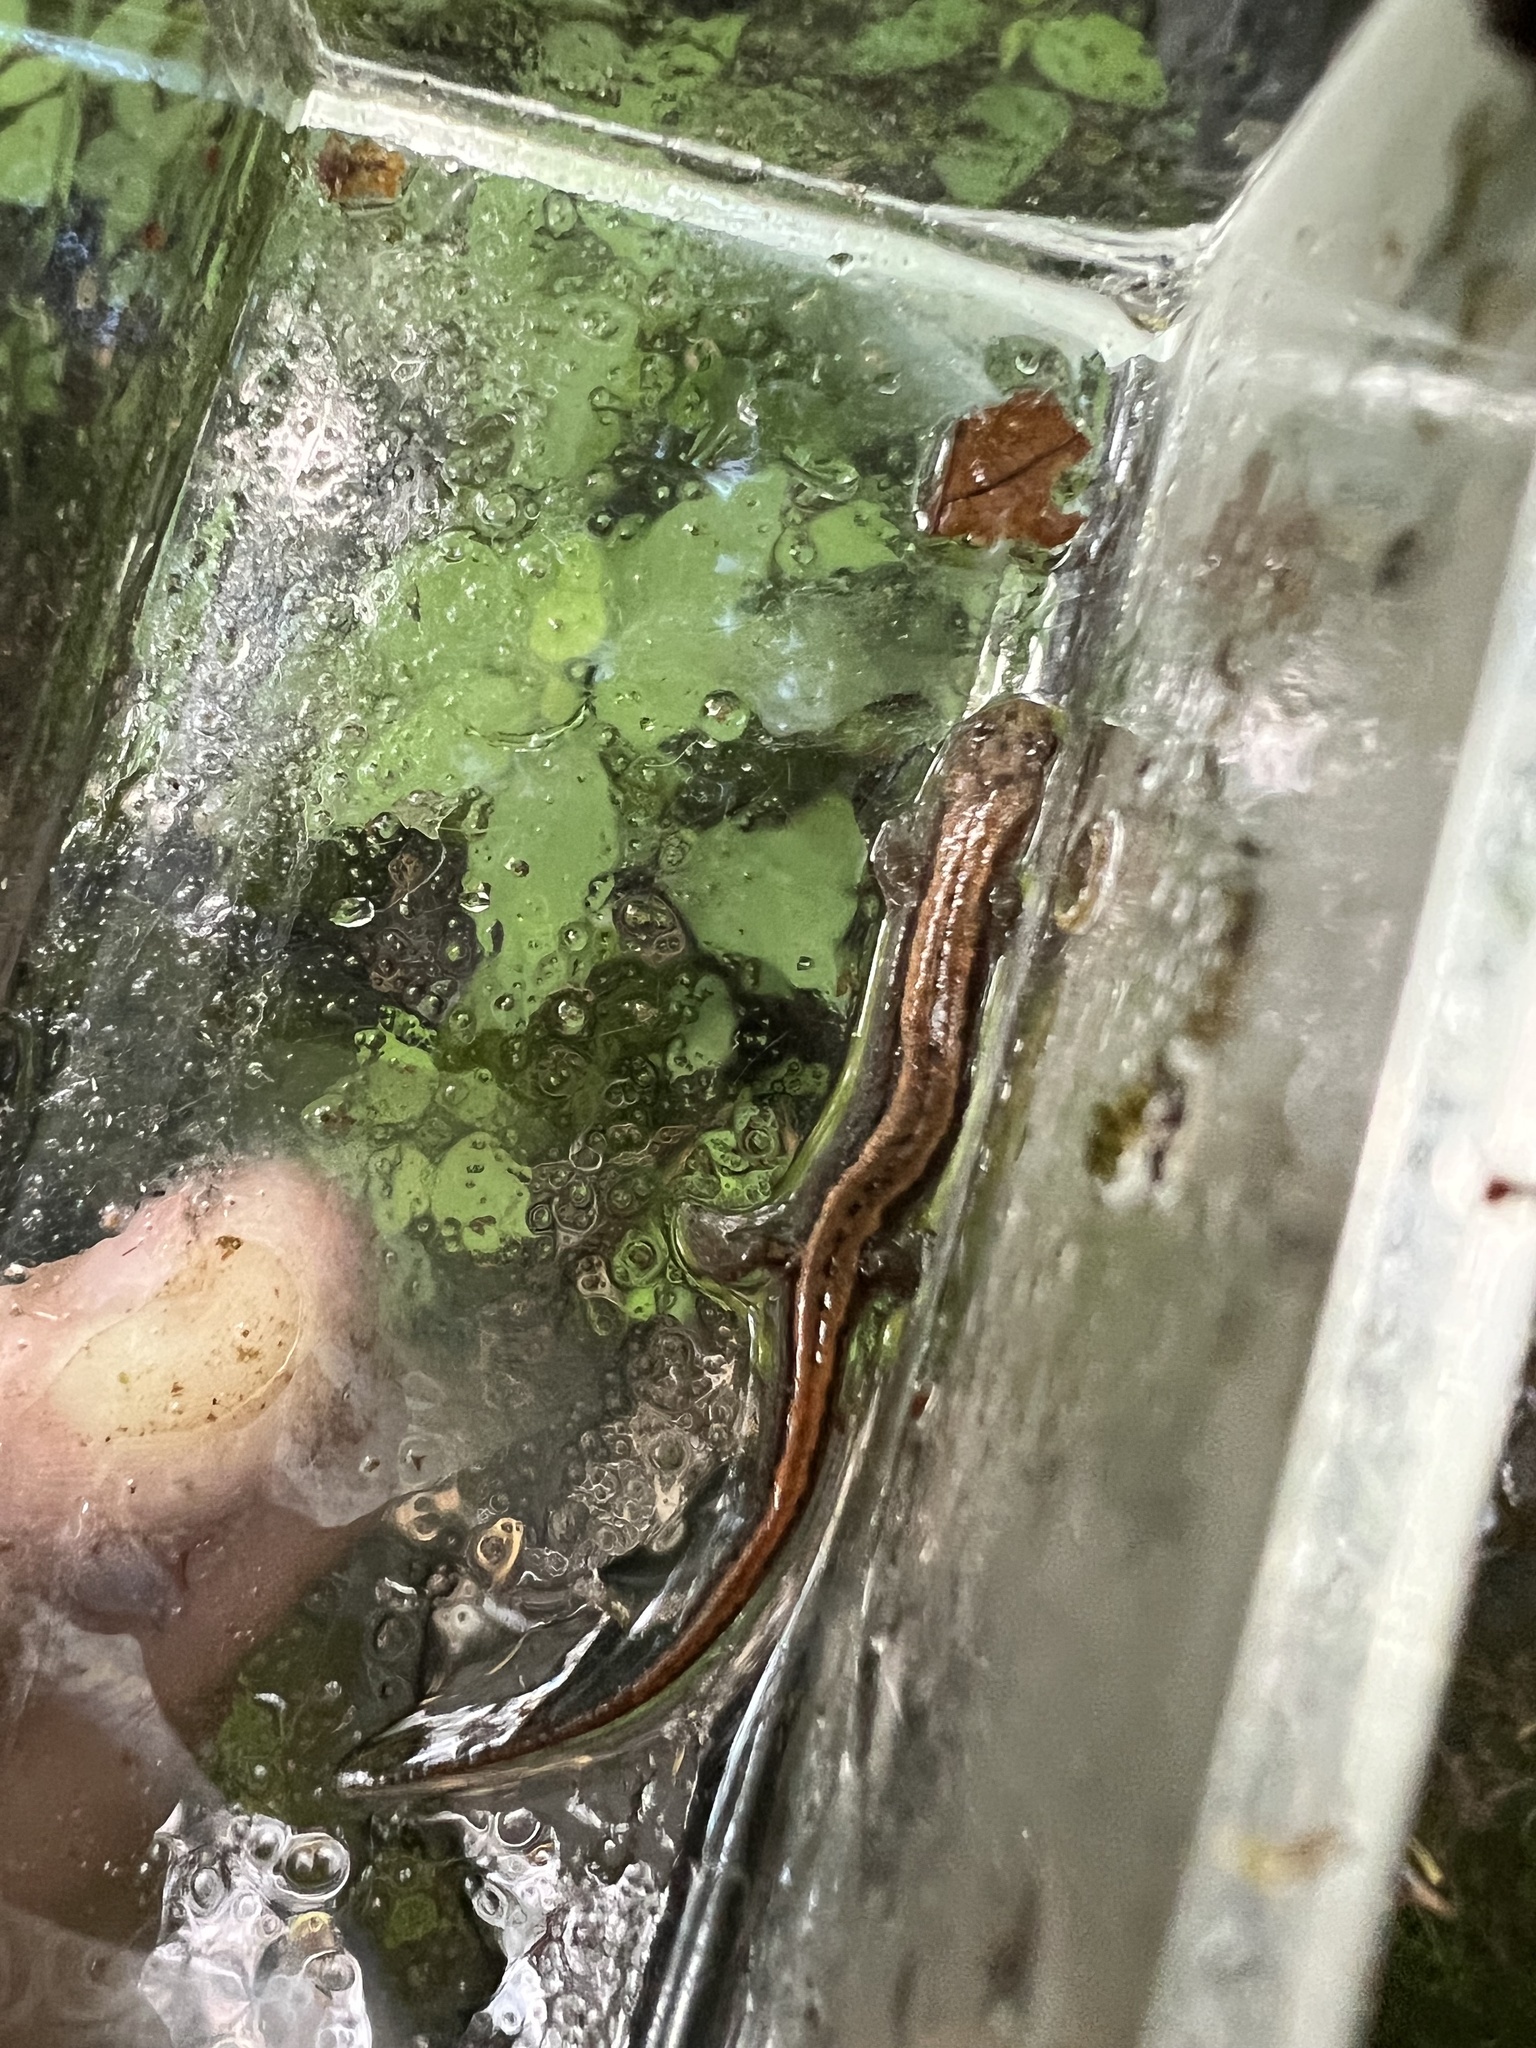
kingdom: Animalia
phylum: Chordata
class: Amphibia
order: Caudata
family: Plethodontidae
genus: Desmognathus
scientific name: Desmognathus aeneus
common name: Seepage salamander
